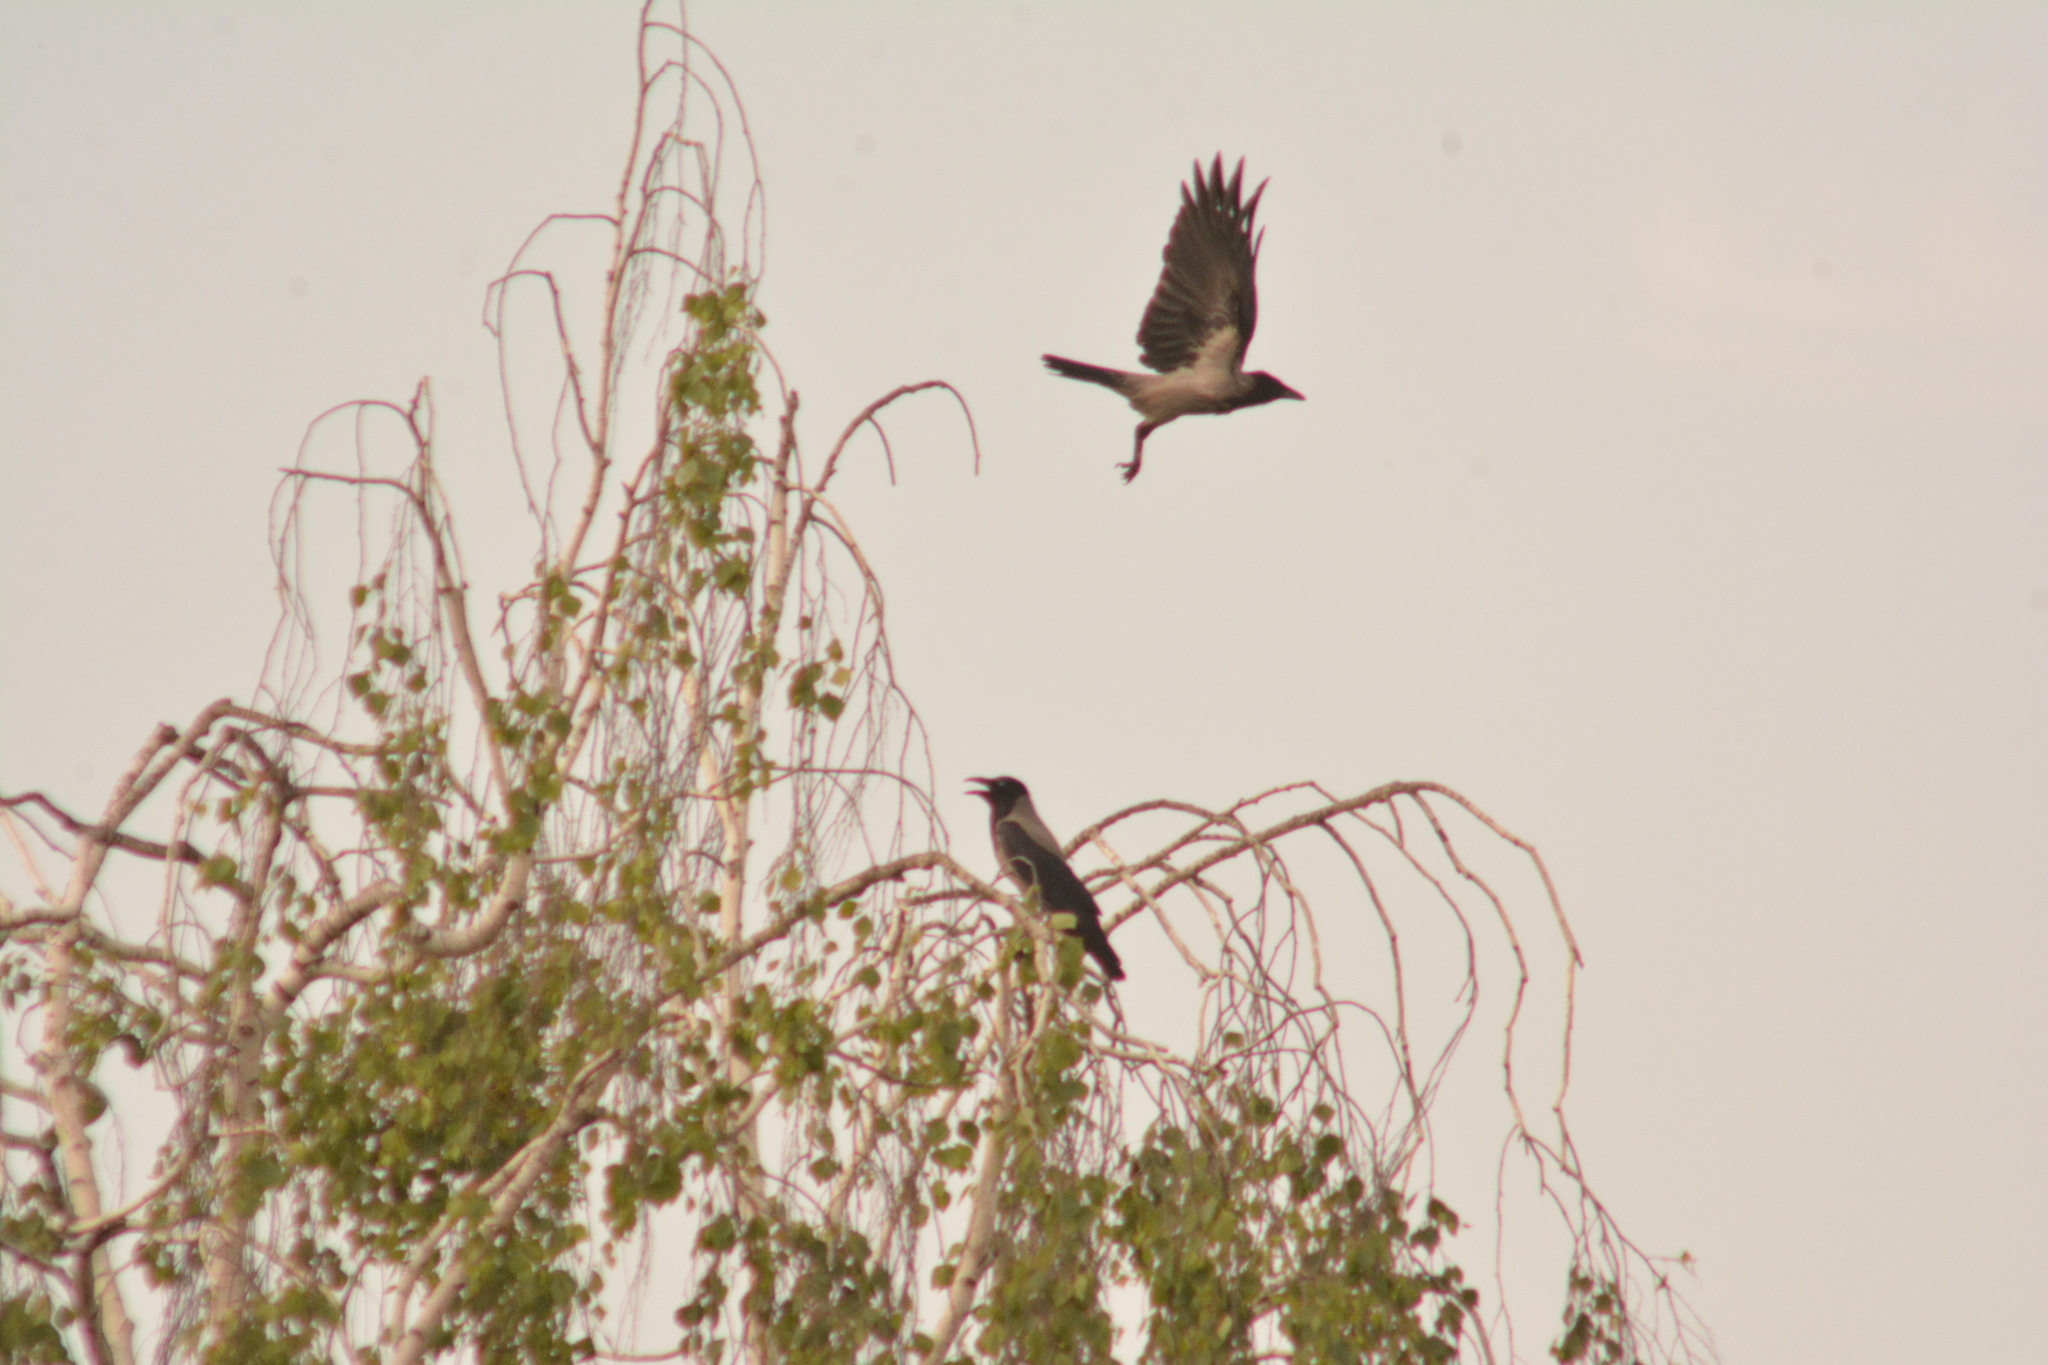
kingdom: Animalia
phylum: Chordata
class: Aves
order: Passeriformes
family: Corvidae
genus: Corvus
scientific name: Corvus cornix
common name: Hooded crow
